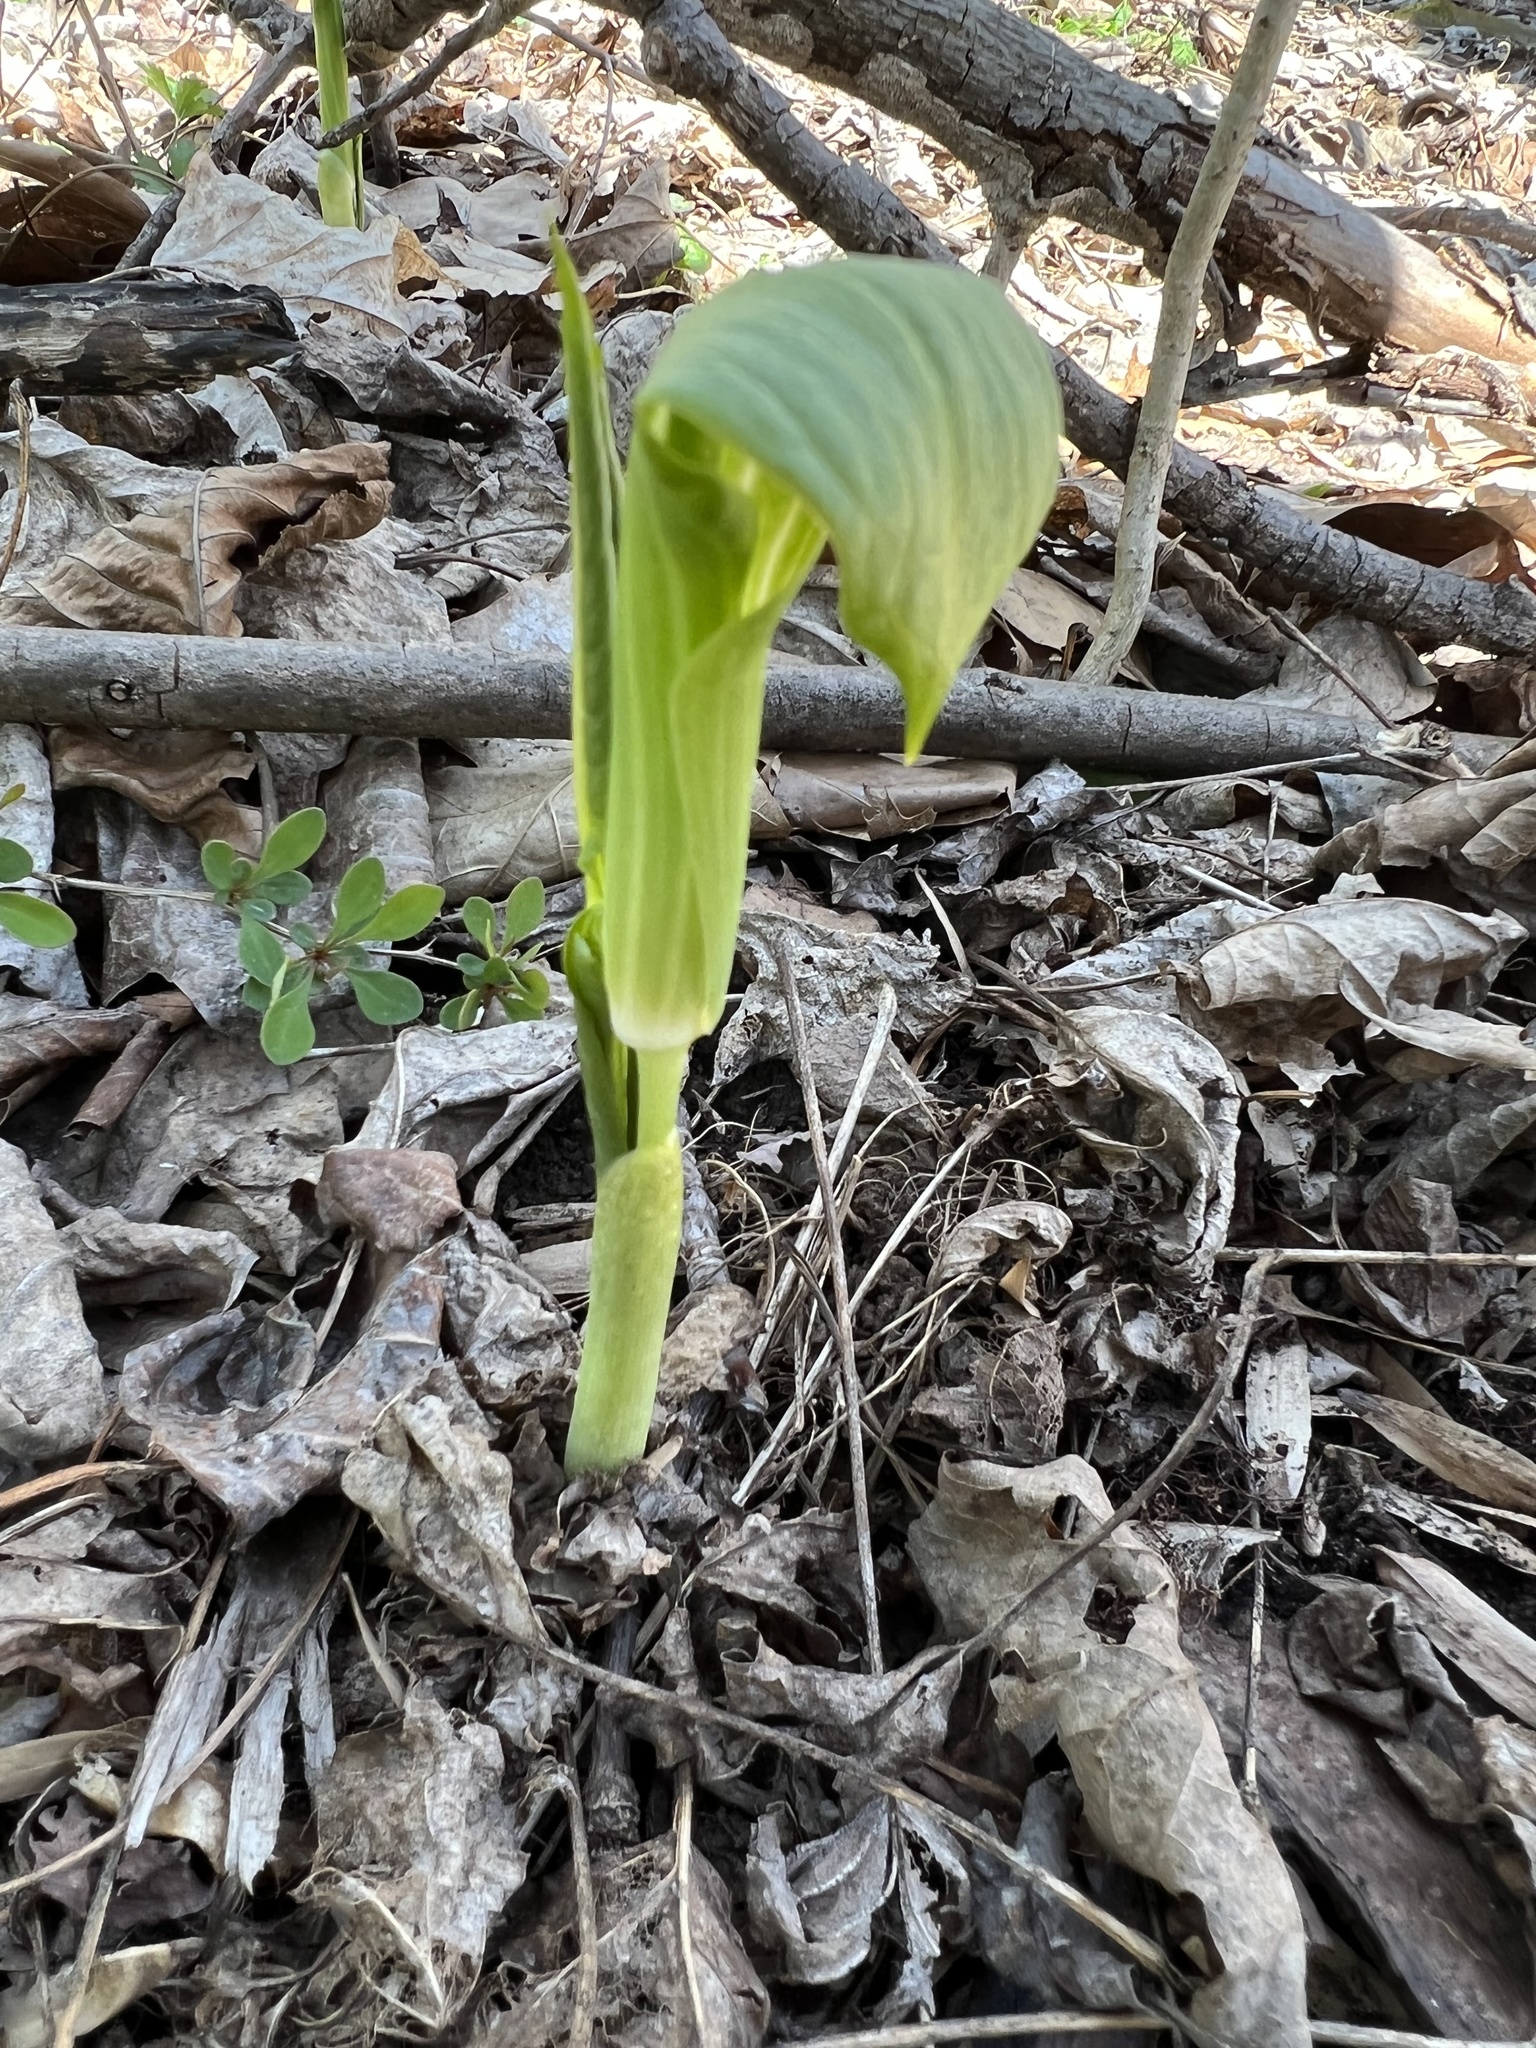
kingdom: Plantae
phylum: Tracheophyta
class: Liliopsida
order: Alismatales
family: Araceae
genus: Arisaema
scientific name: Arisaema triphyllum
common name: Jack-in-the-pulpit
